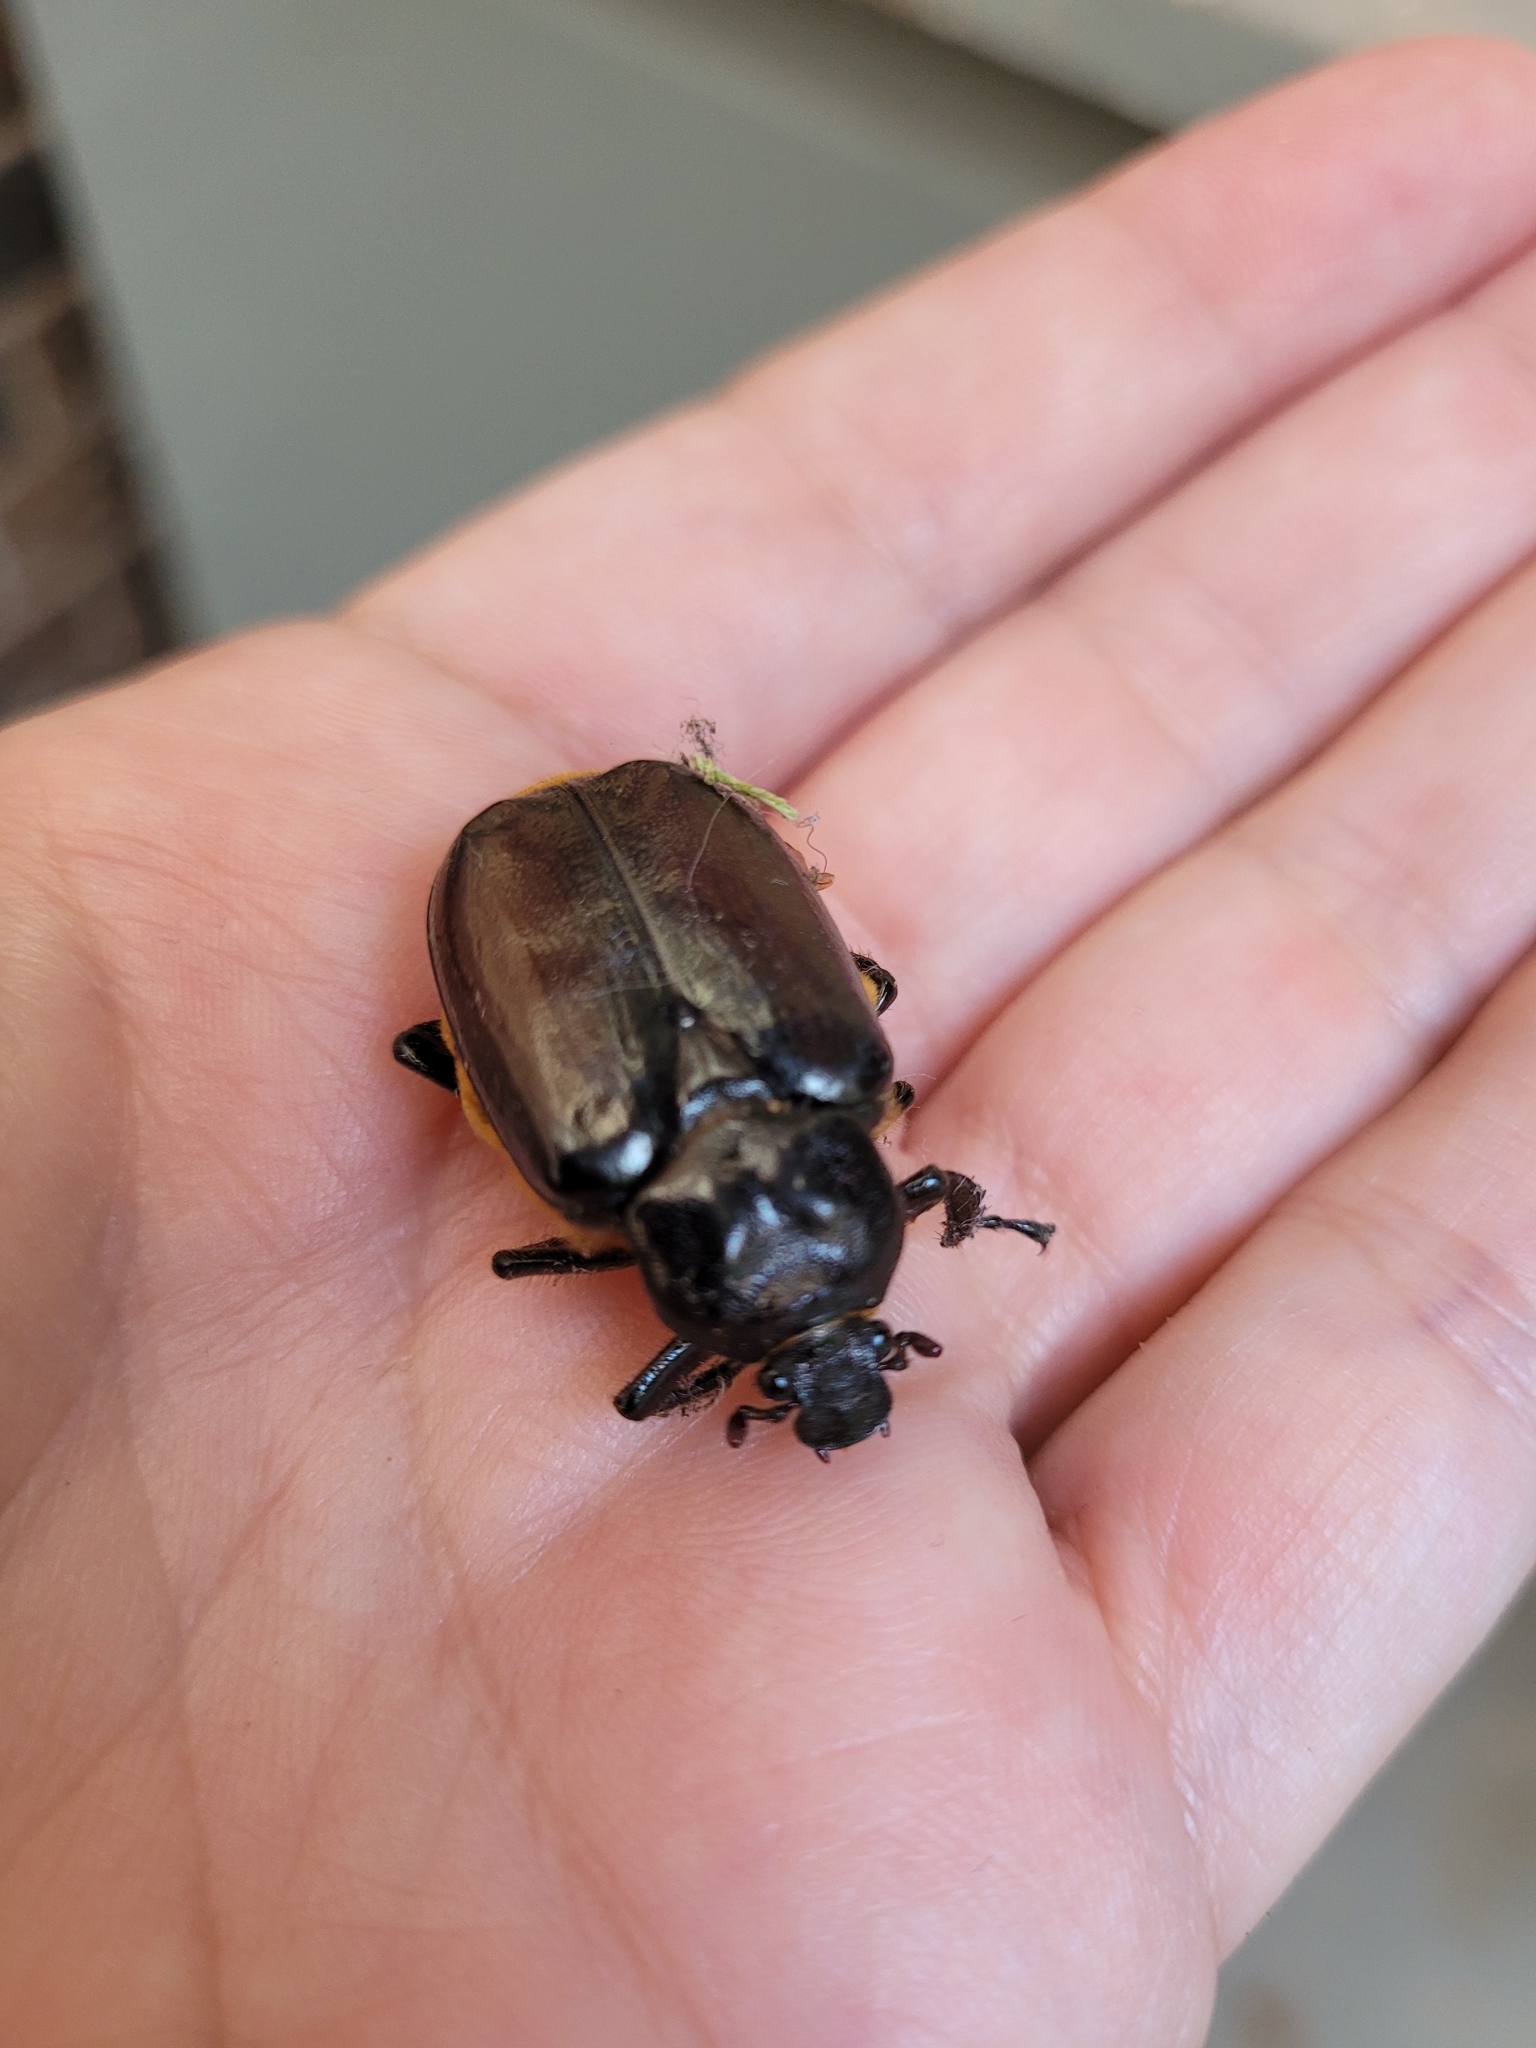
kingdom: Animalia
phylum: Arthropoda
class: Insecta
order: Coleoptera
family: Scarabaeidae
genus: Osmoderma
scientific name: Osmoderma eremicola
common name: Hermit flower beetle
